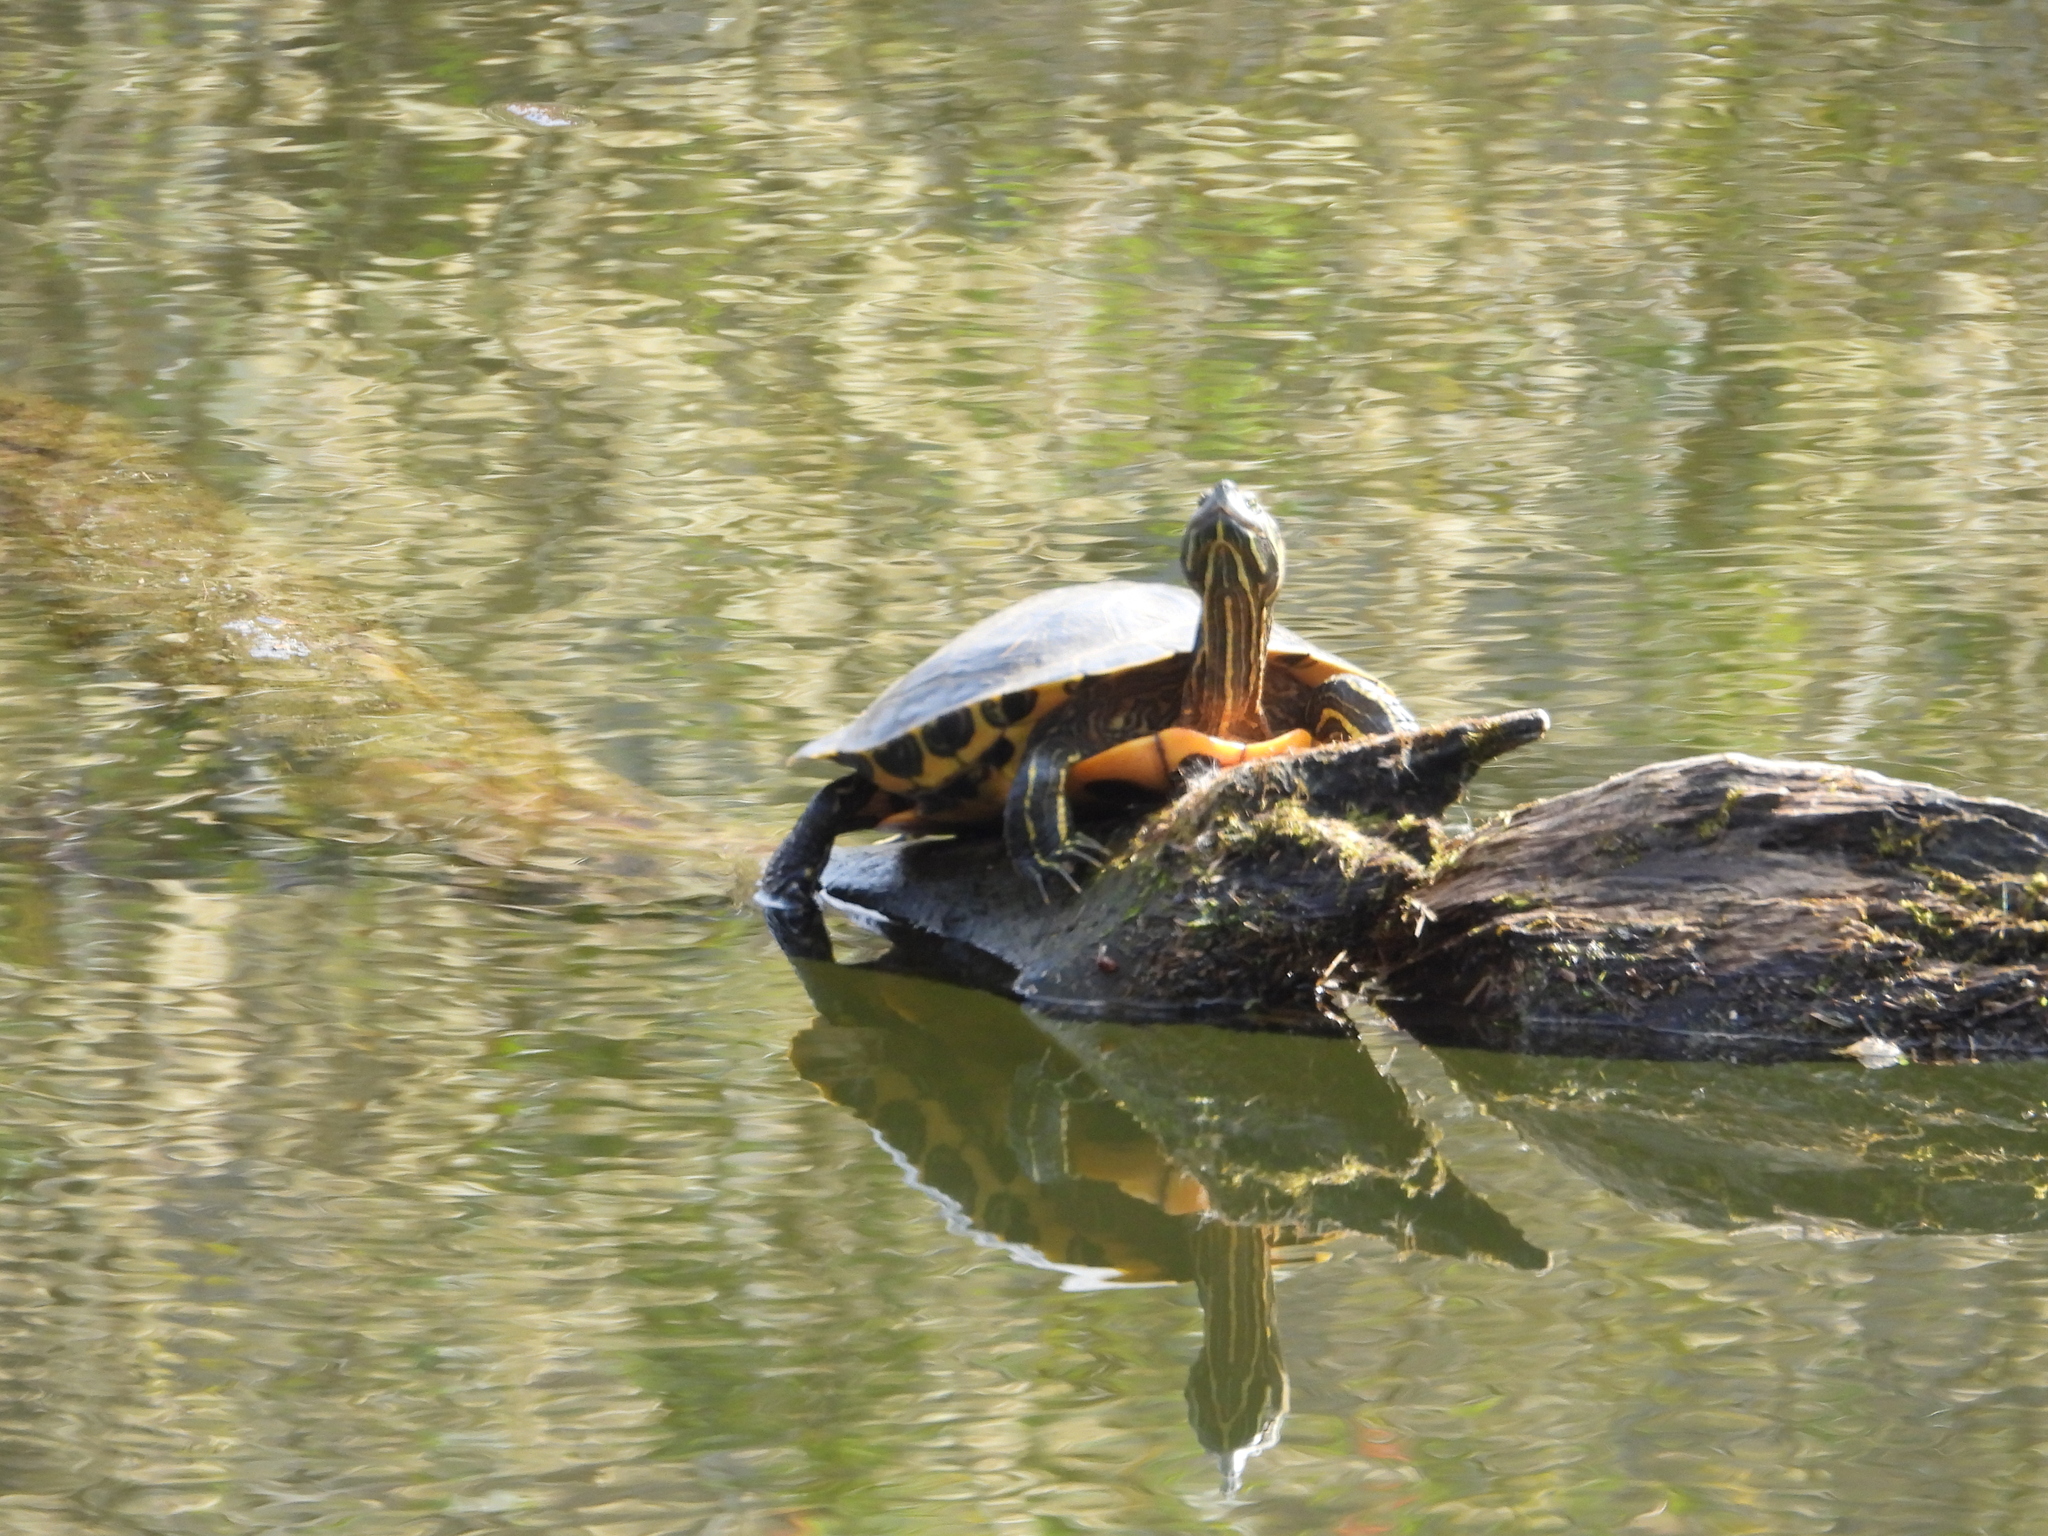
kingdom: Animalia
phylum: Chordata
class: Testudines
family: Emydidae
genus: Trachemys
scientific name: Trachemys scripta
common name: Slider
